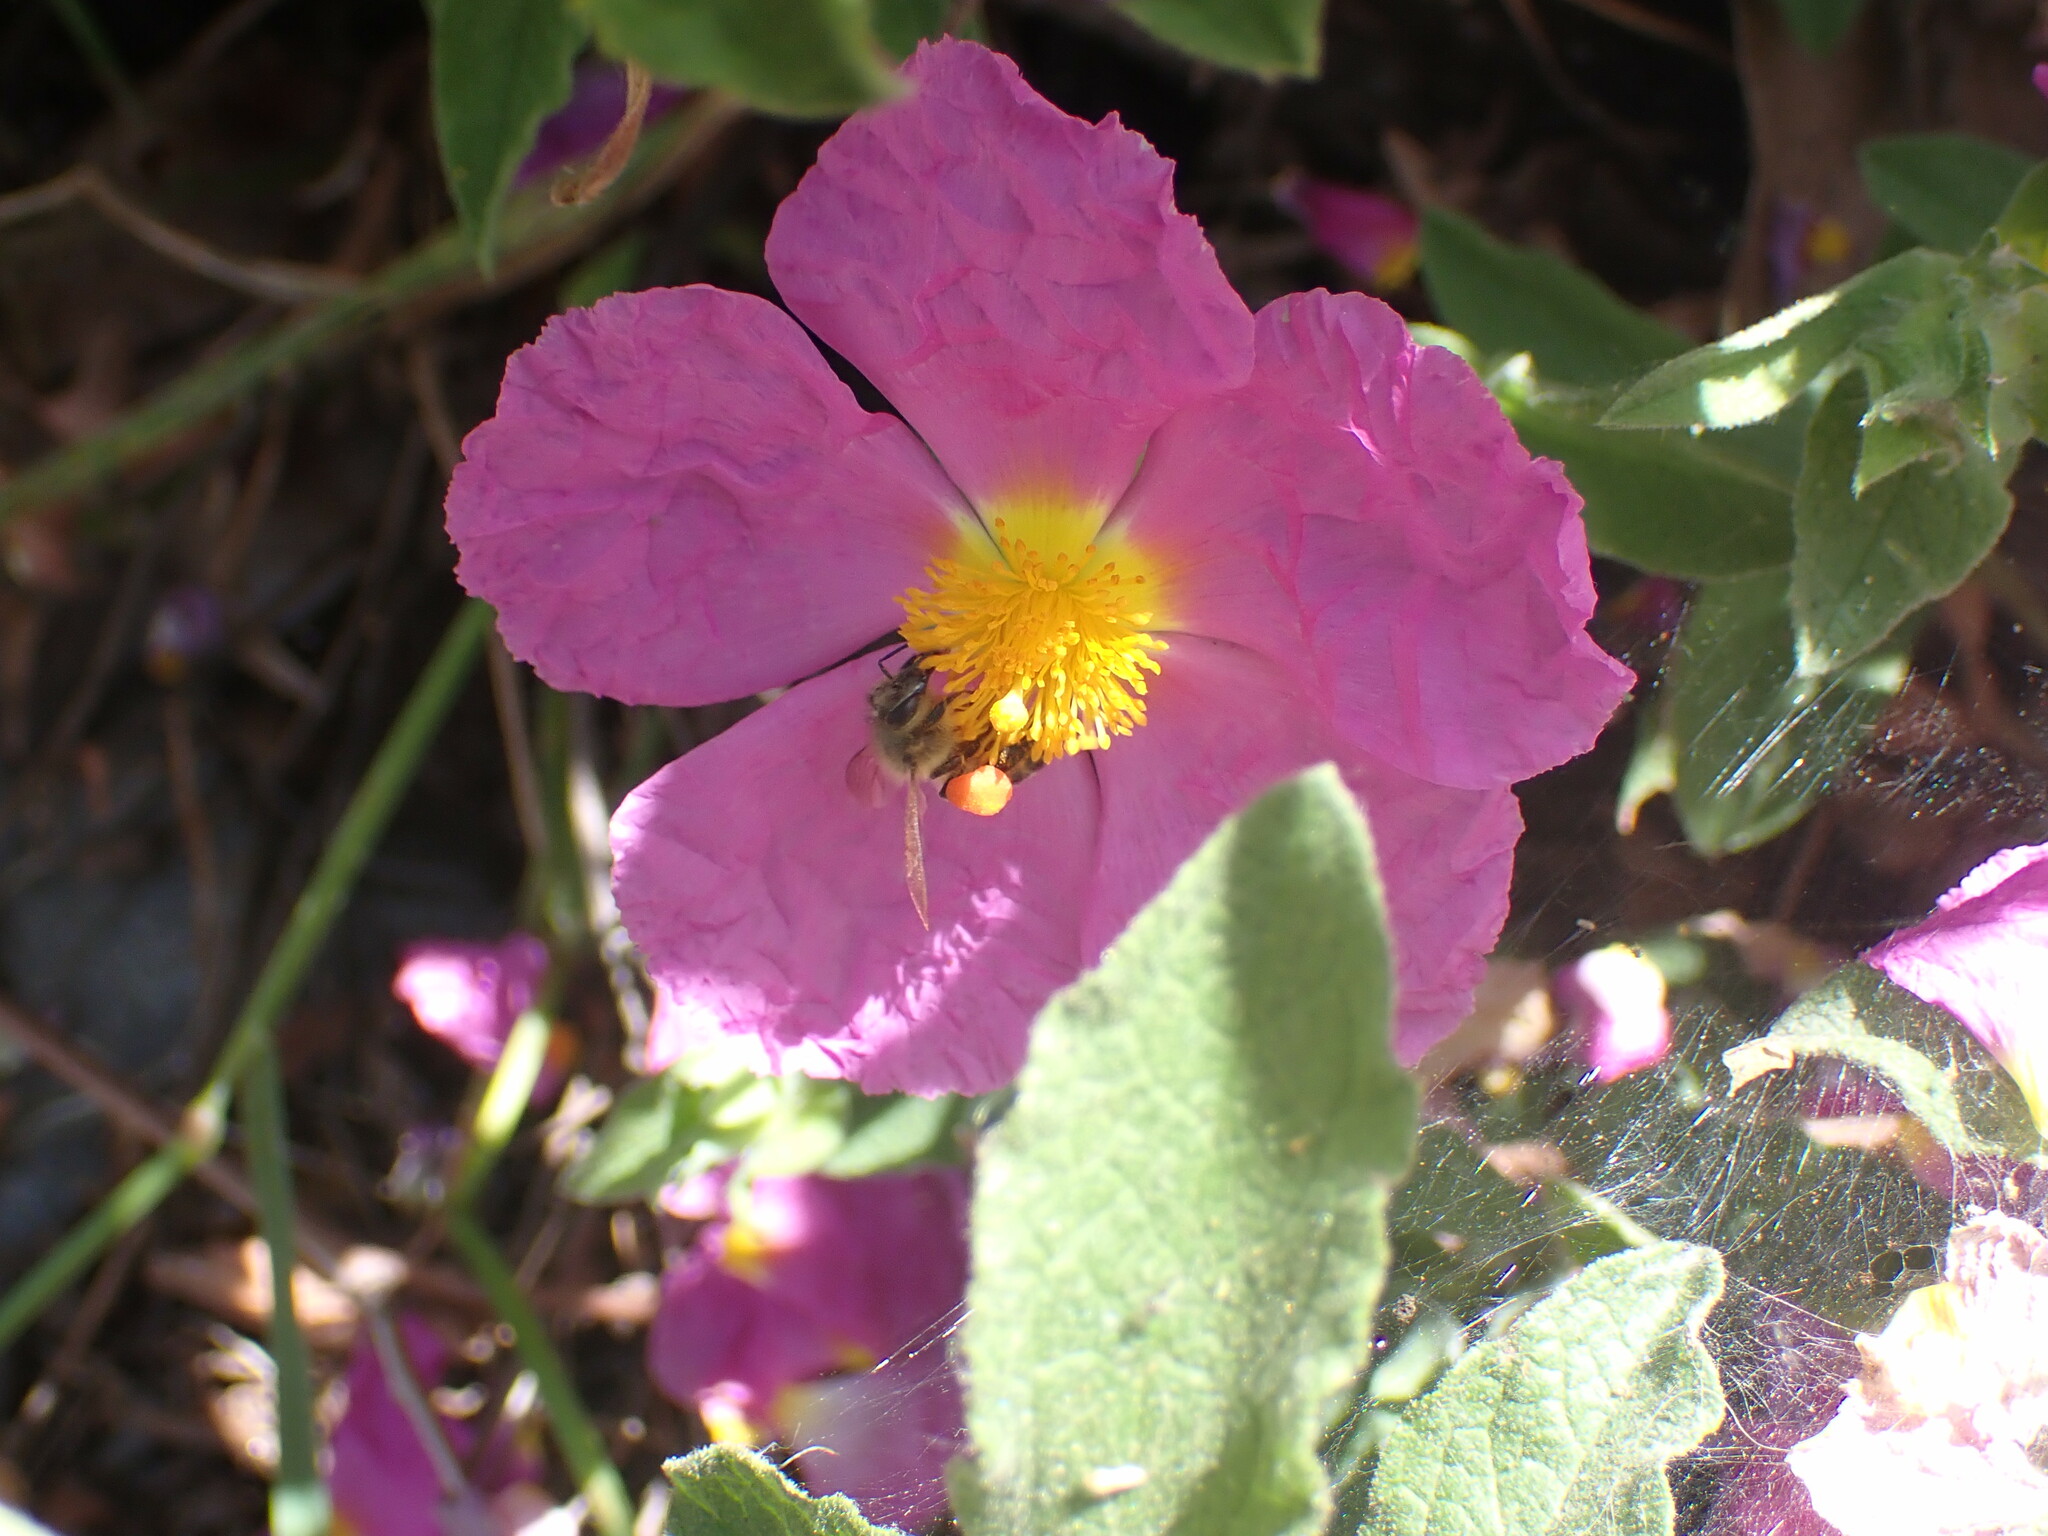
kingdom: Animalia
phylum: Arthropoda
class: Insecta
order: Hymenoptera
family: Apidae
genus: Apis
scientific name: Apis mellifera
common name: Honey bee
